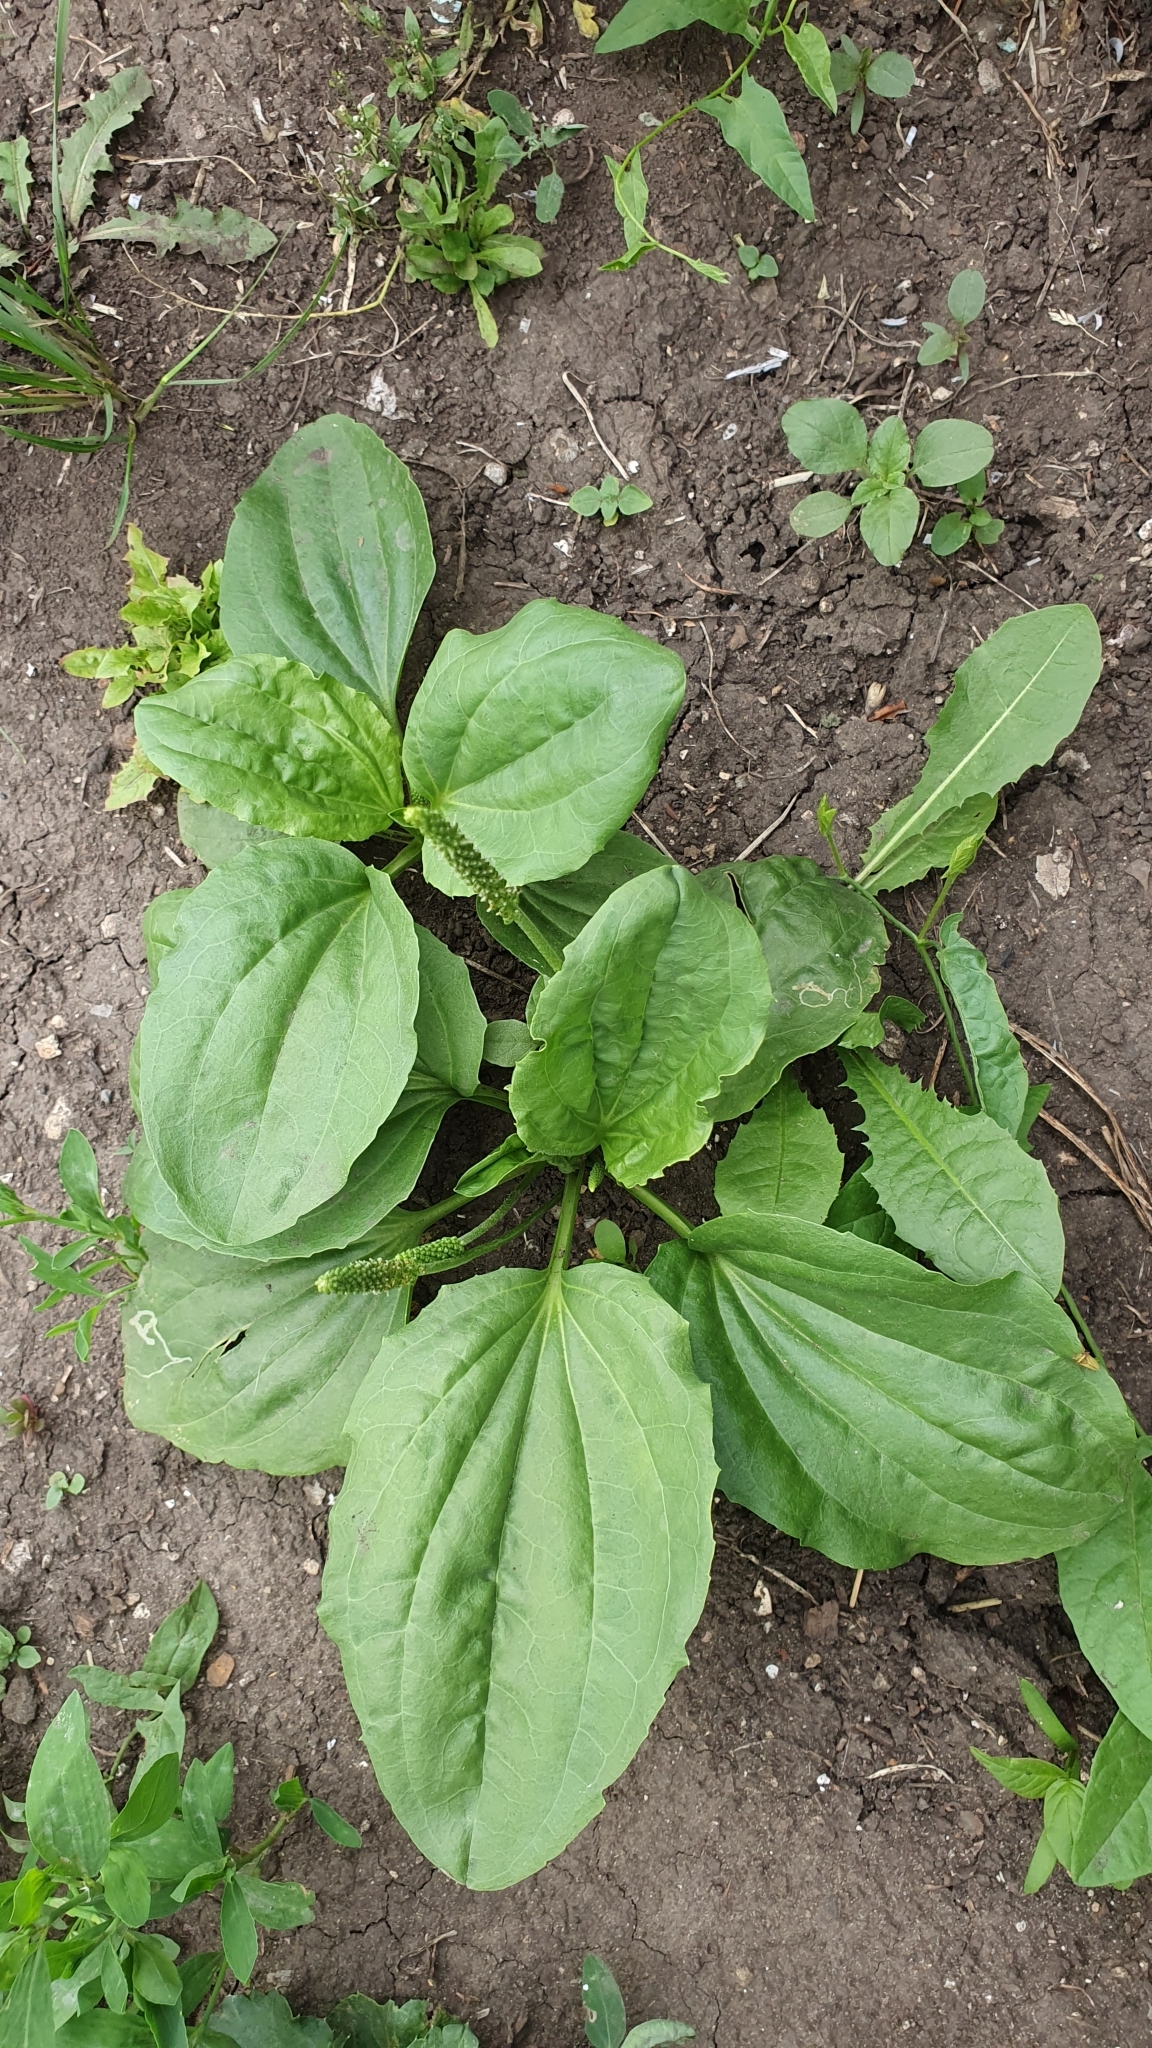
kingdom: Plantae
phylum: Tracheophyta
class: Magnoliopsida
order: Lamiales
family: Plantaginaceae
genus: Plantago
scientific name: Plantago major
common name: Common plantain
